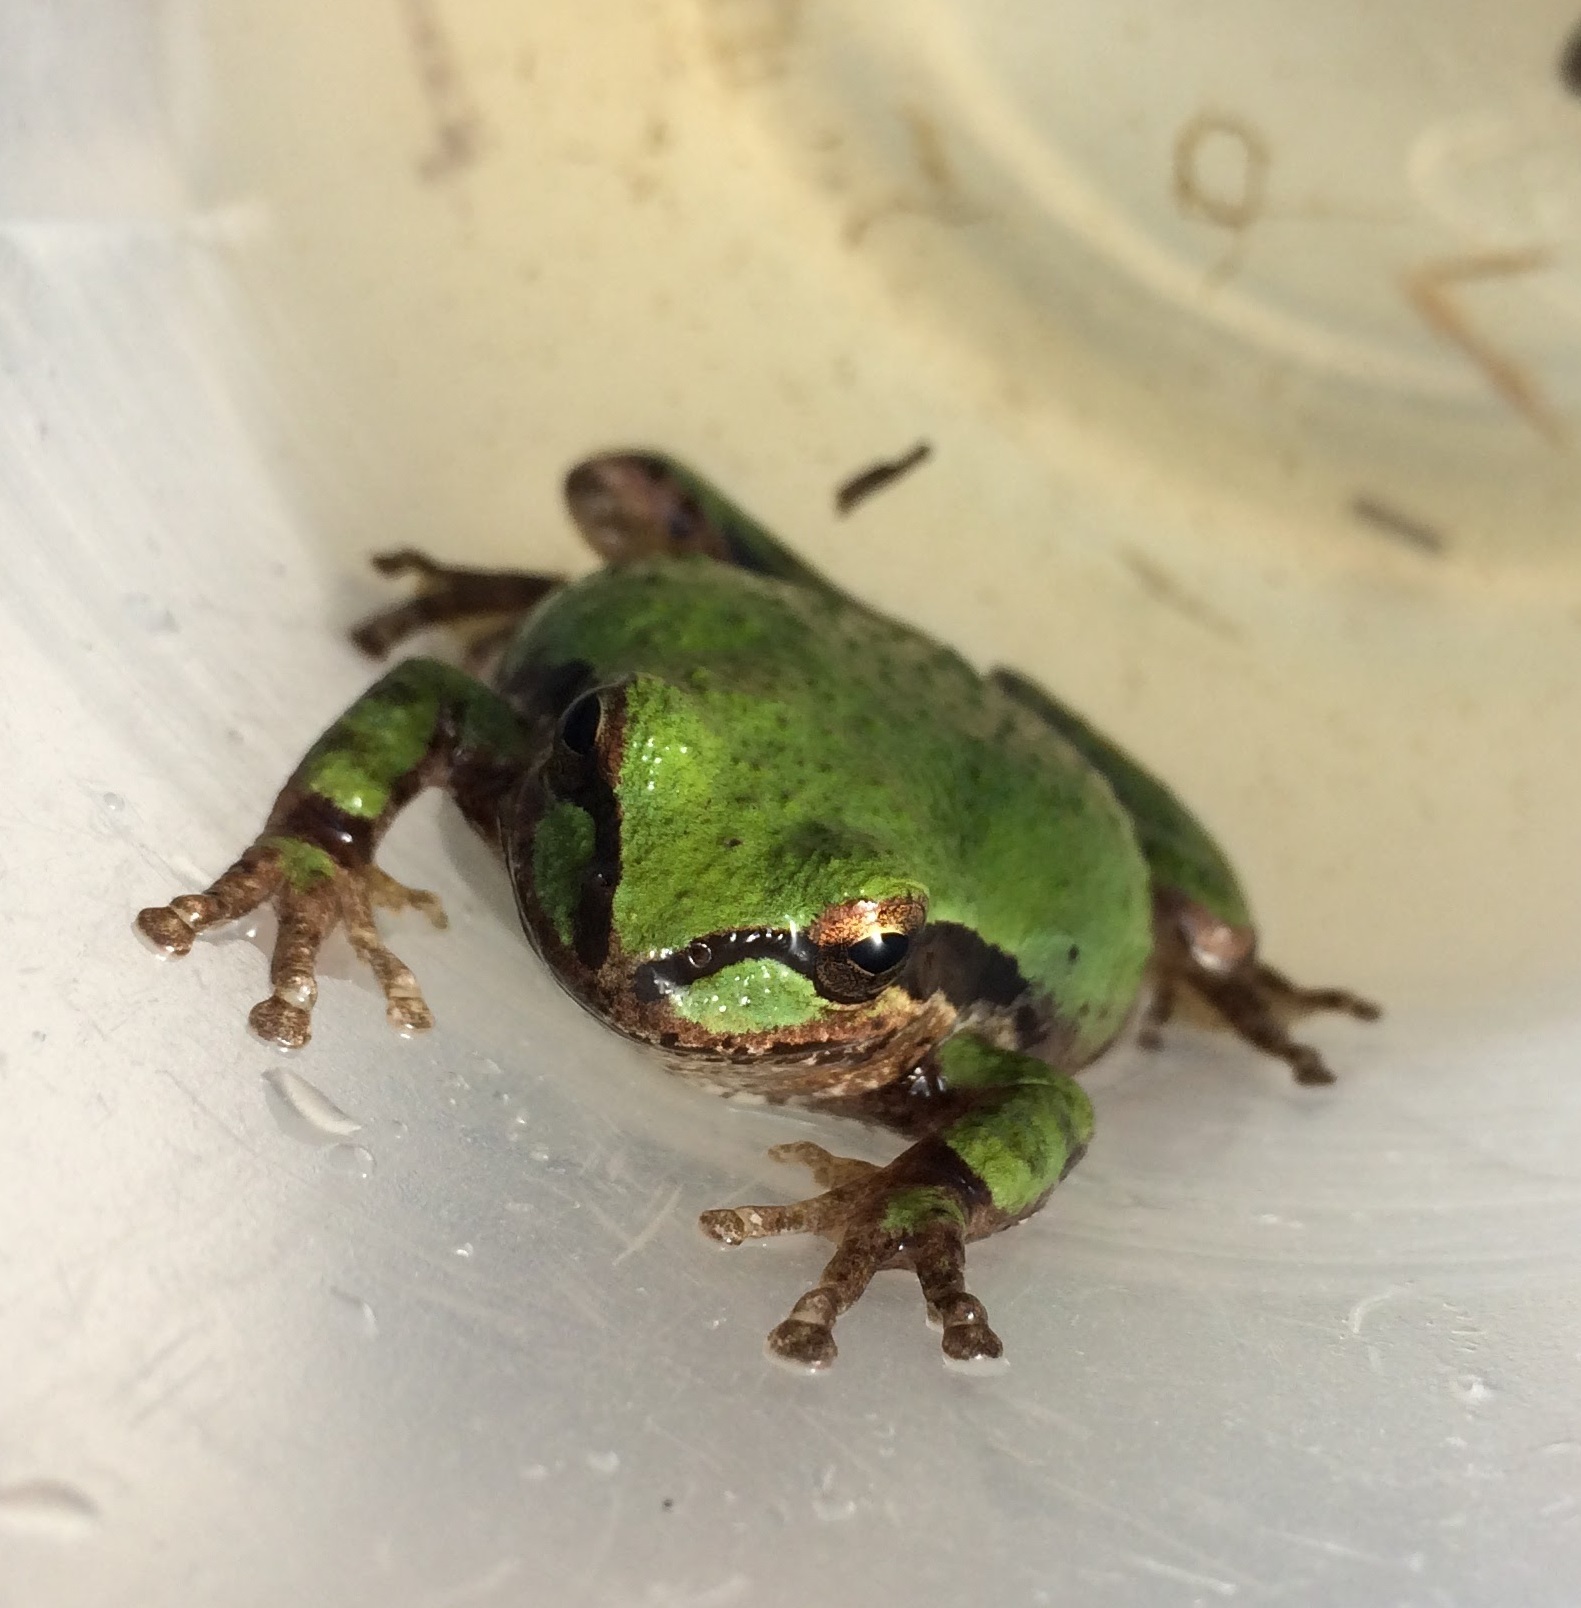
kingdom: Animalia
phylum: Chordata
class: Amphibia
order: Anura
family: Hylidae
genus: Pseudacris
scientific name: Pseudacris regilla
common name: Pacific chorus frog
